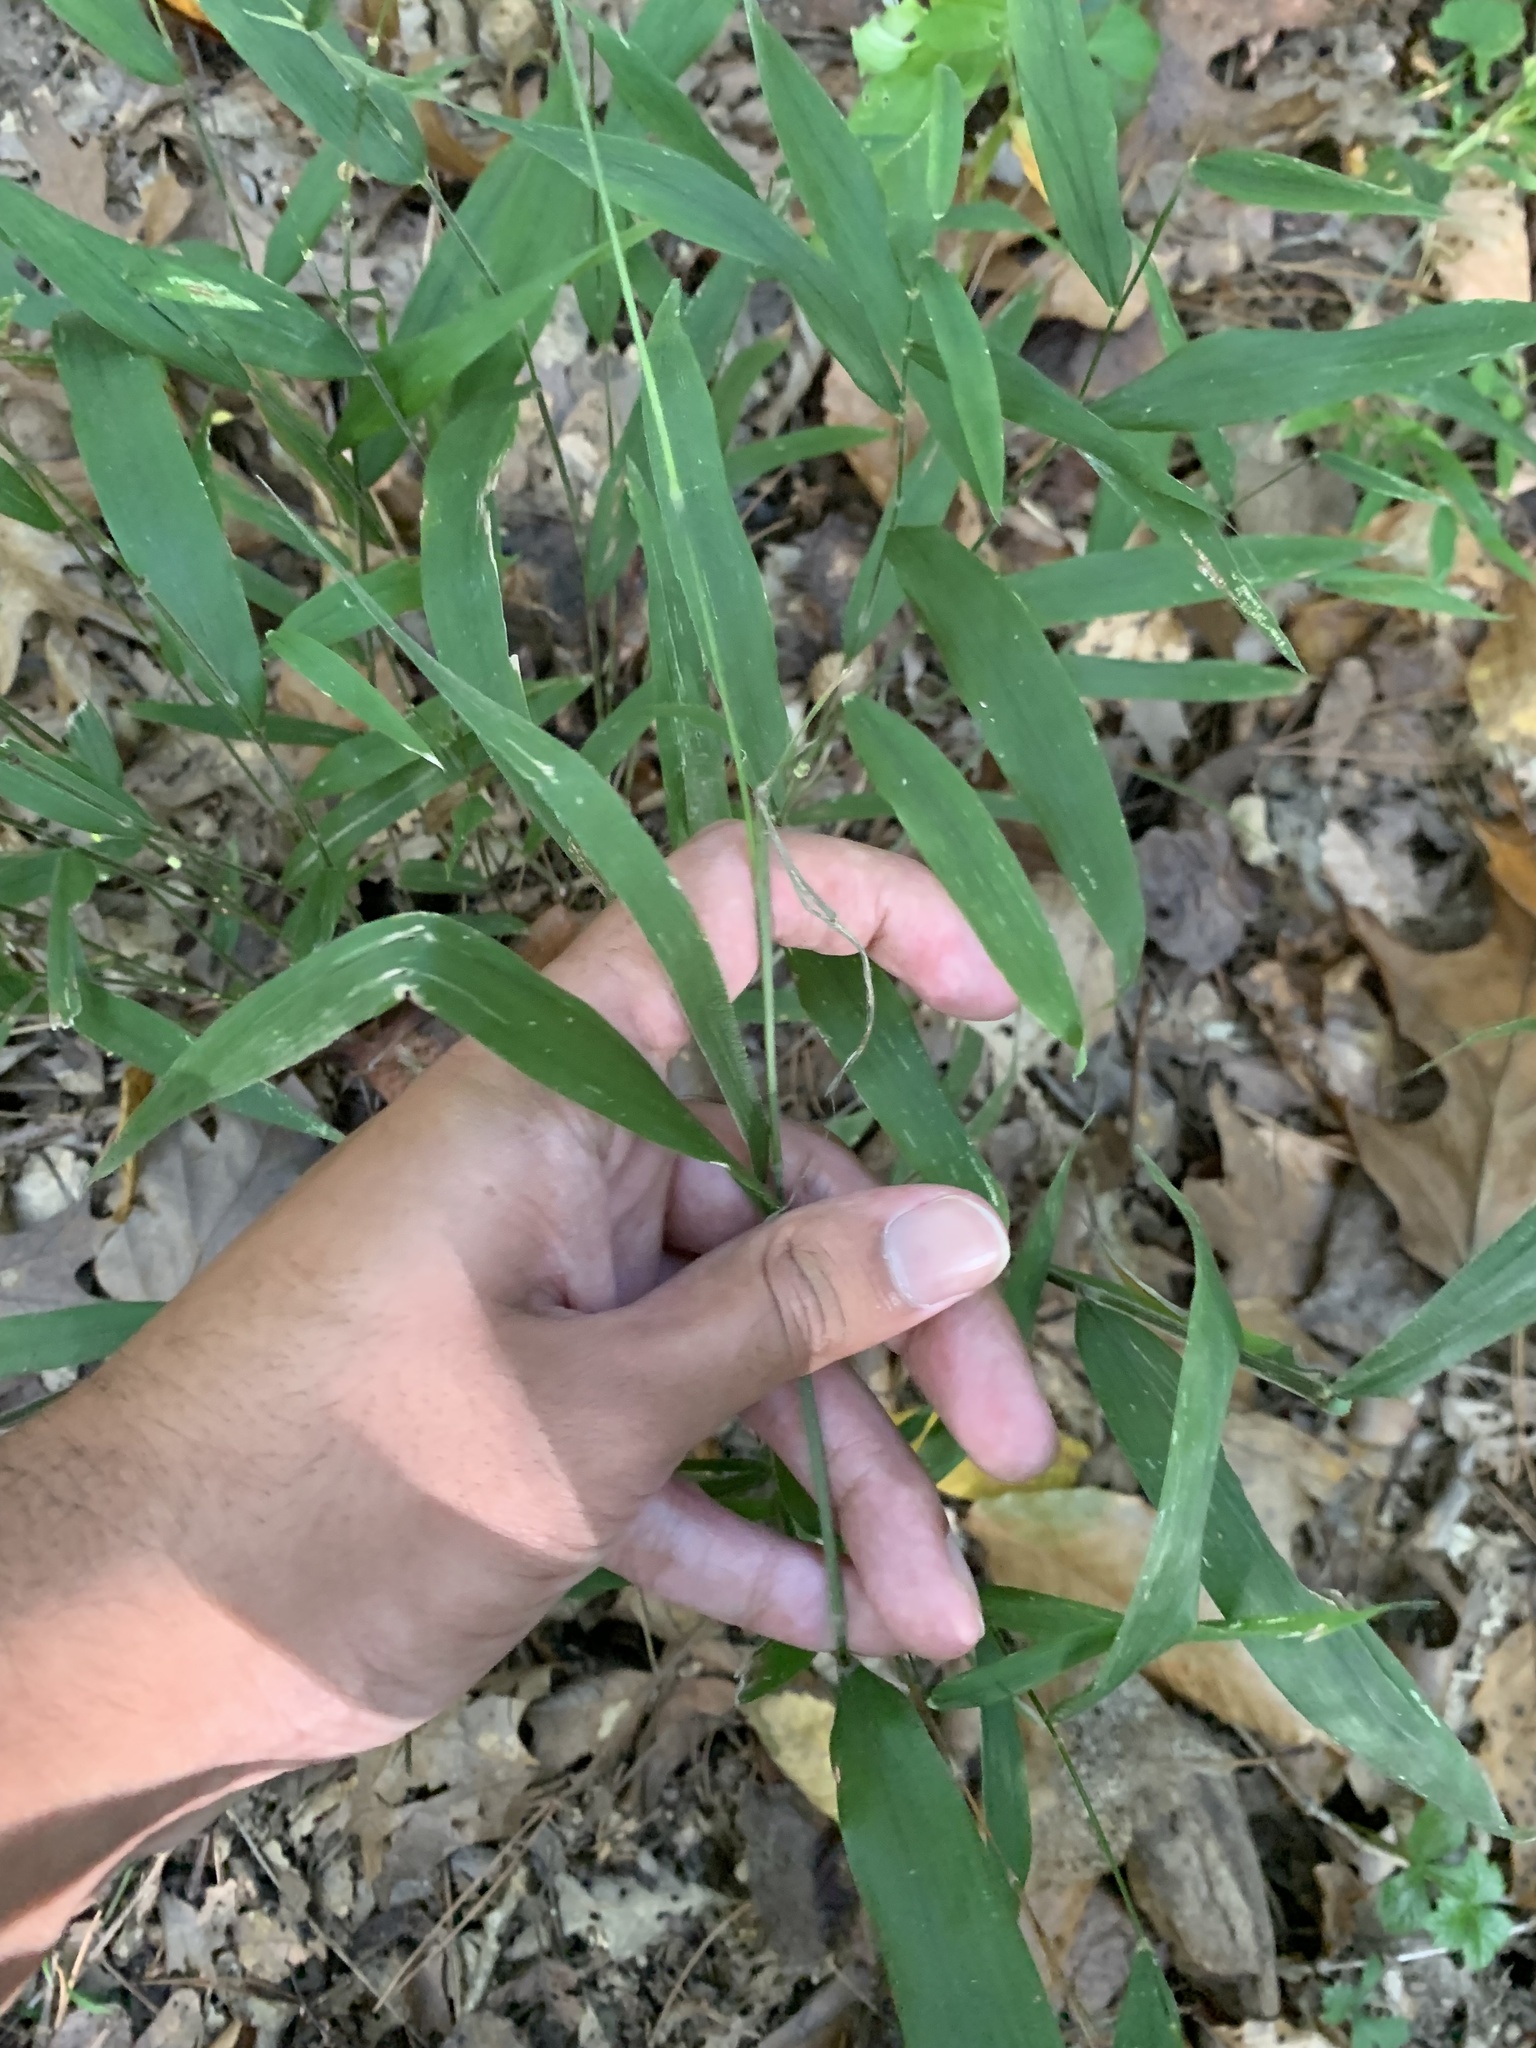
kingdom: Plantae
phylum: Tracheophyta
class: Liliopsida
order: Poales
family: Poaceae
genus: Brachyelytrum
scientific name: Brachyelytrum erectum
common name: Bearded shorthusk
